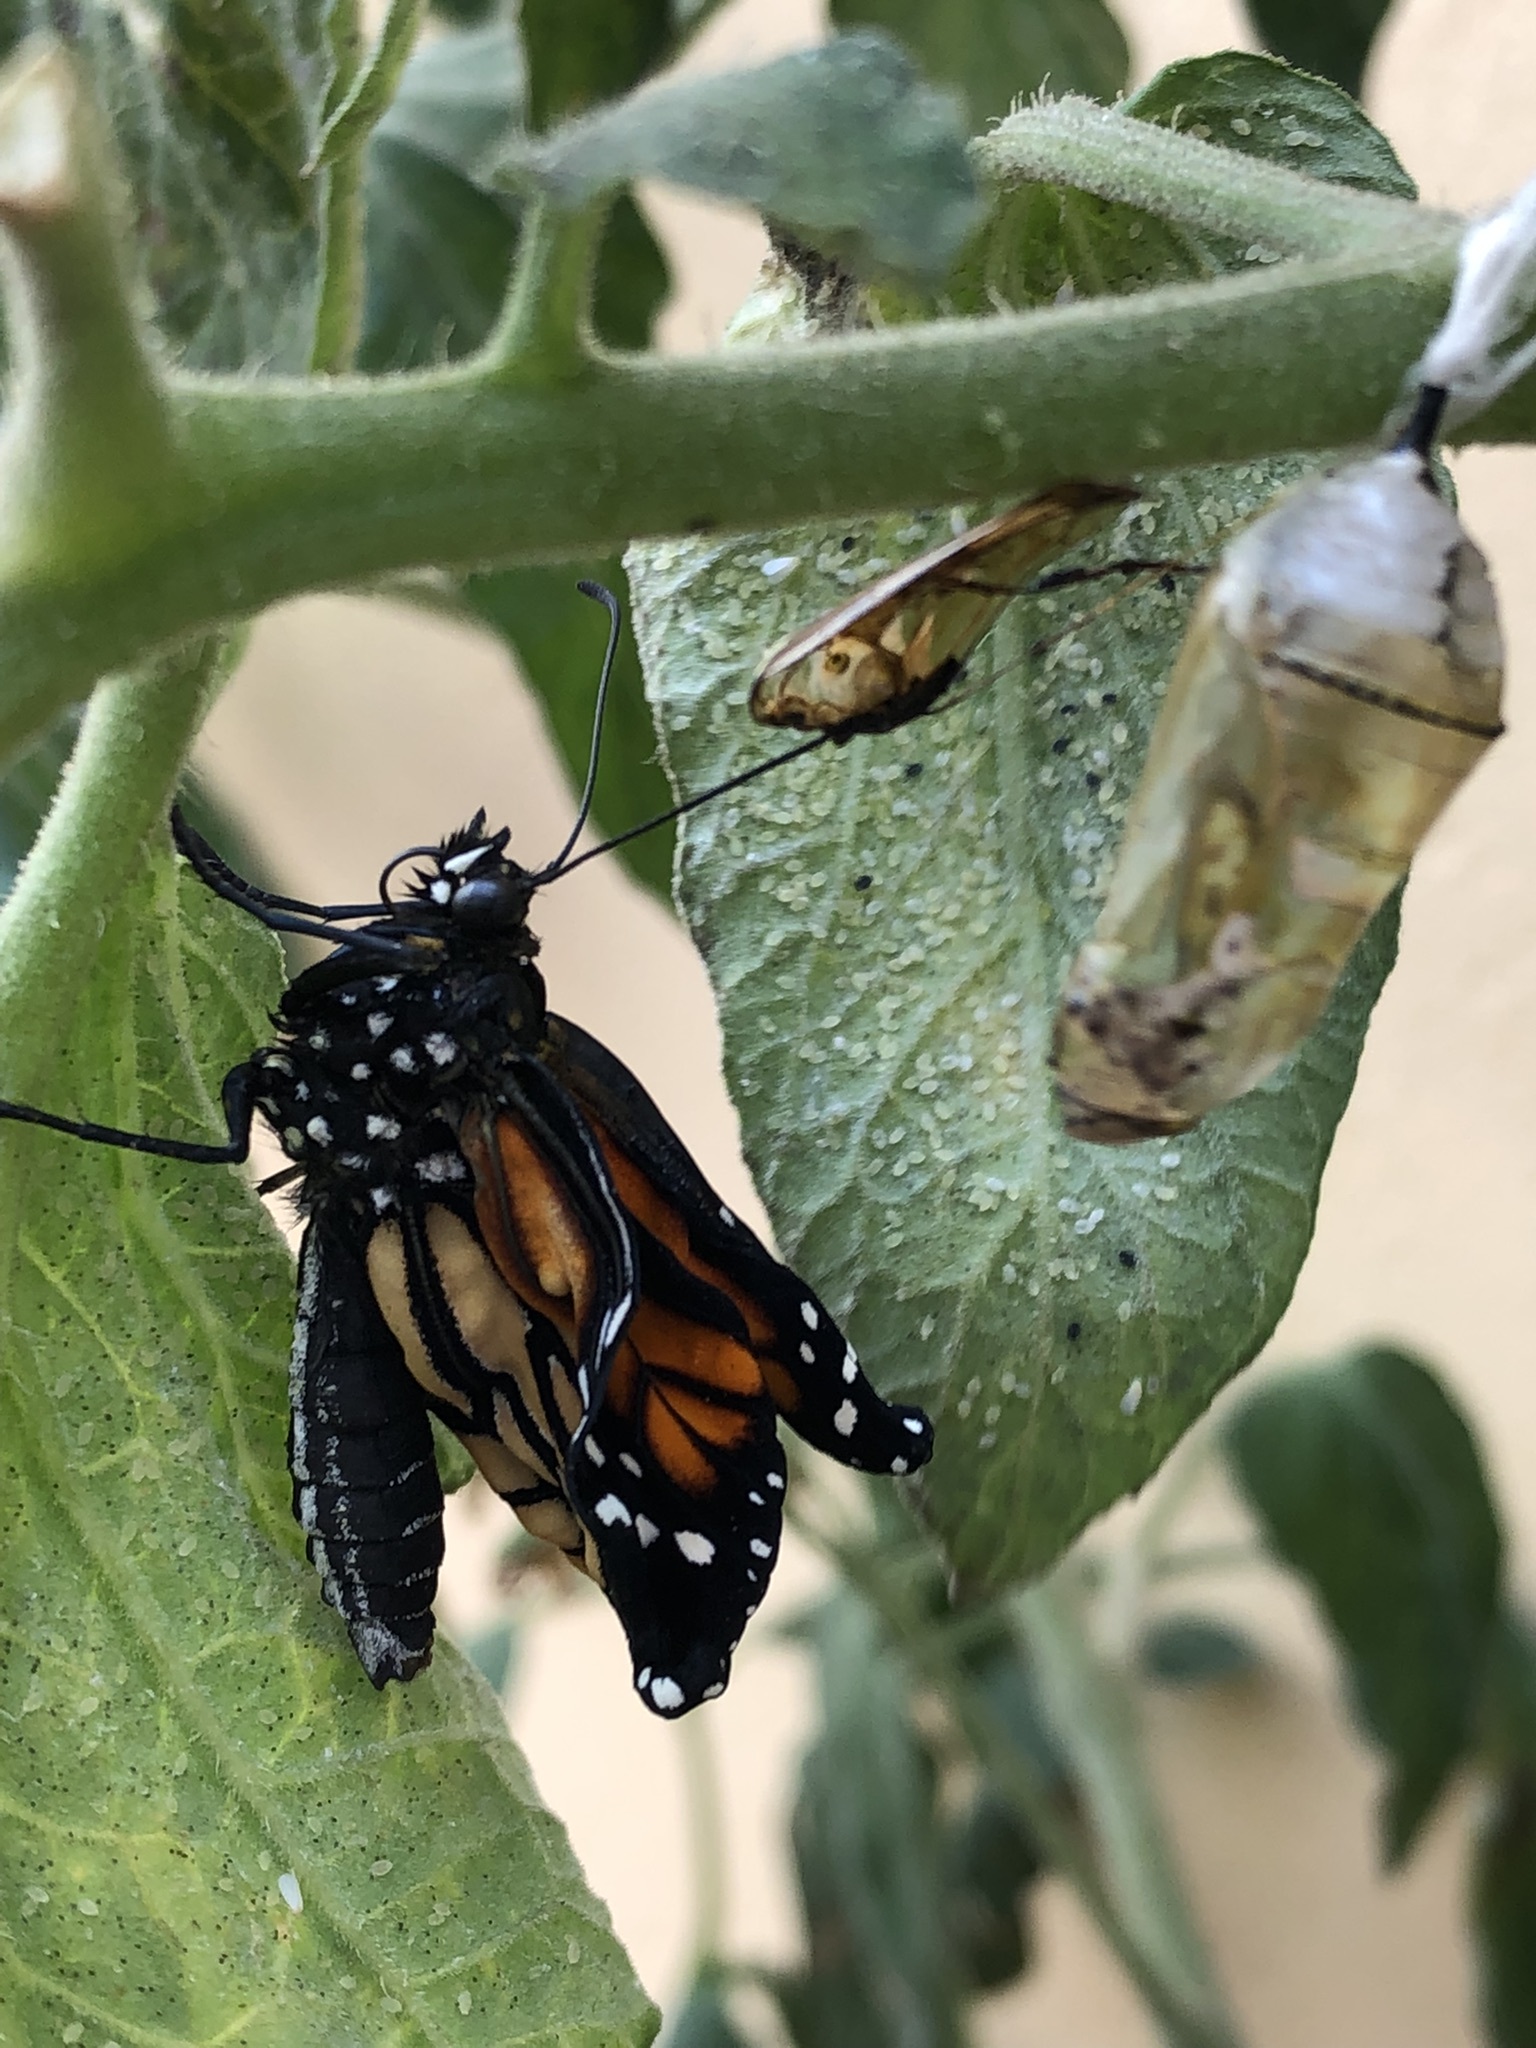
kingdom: Animalia
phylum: Arthropoda
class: Insecta
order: Lepidoptera
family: Nymphalidae
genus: Danaus
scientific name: Danaus plexippus
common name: Monarch
